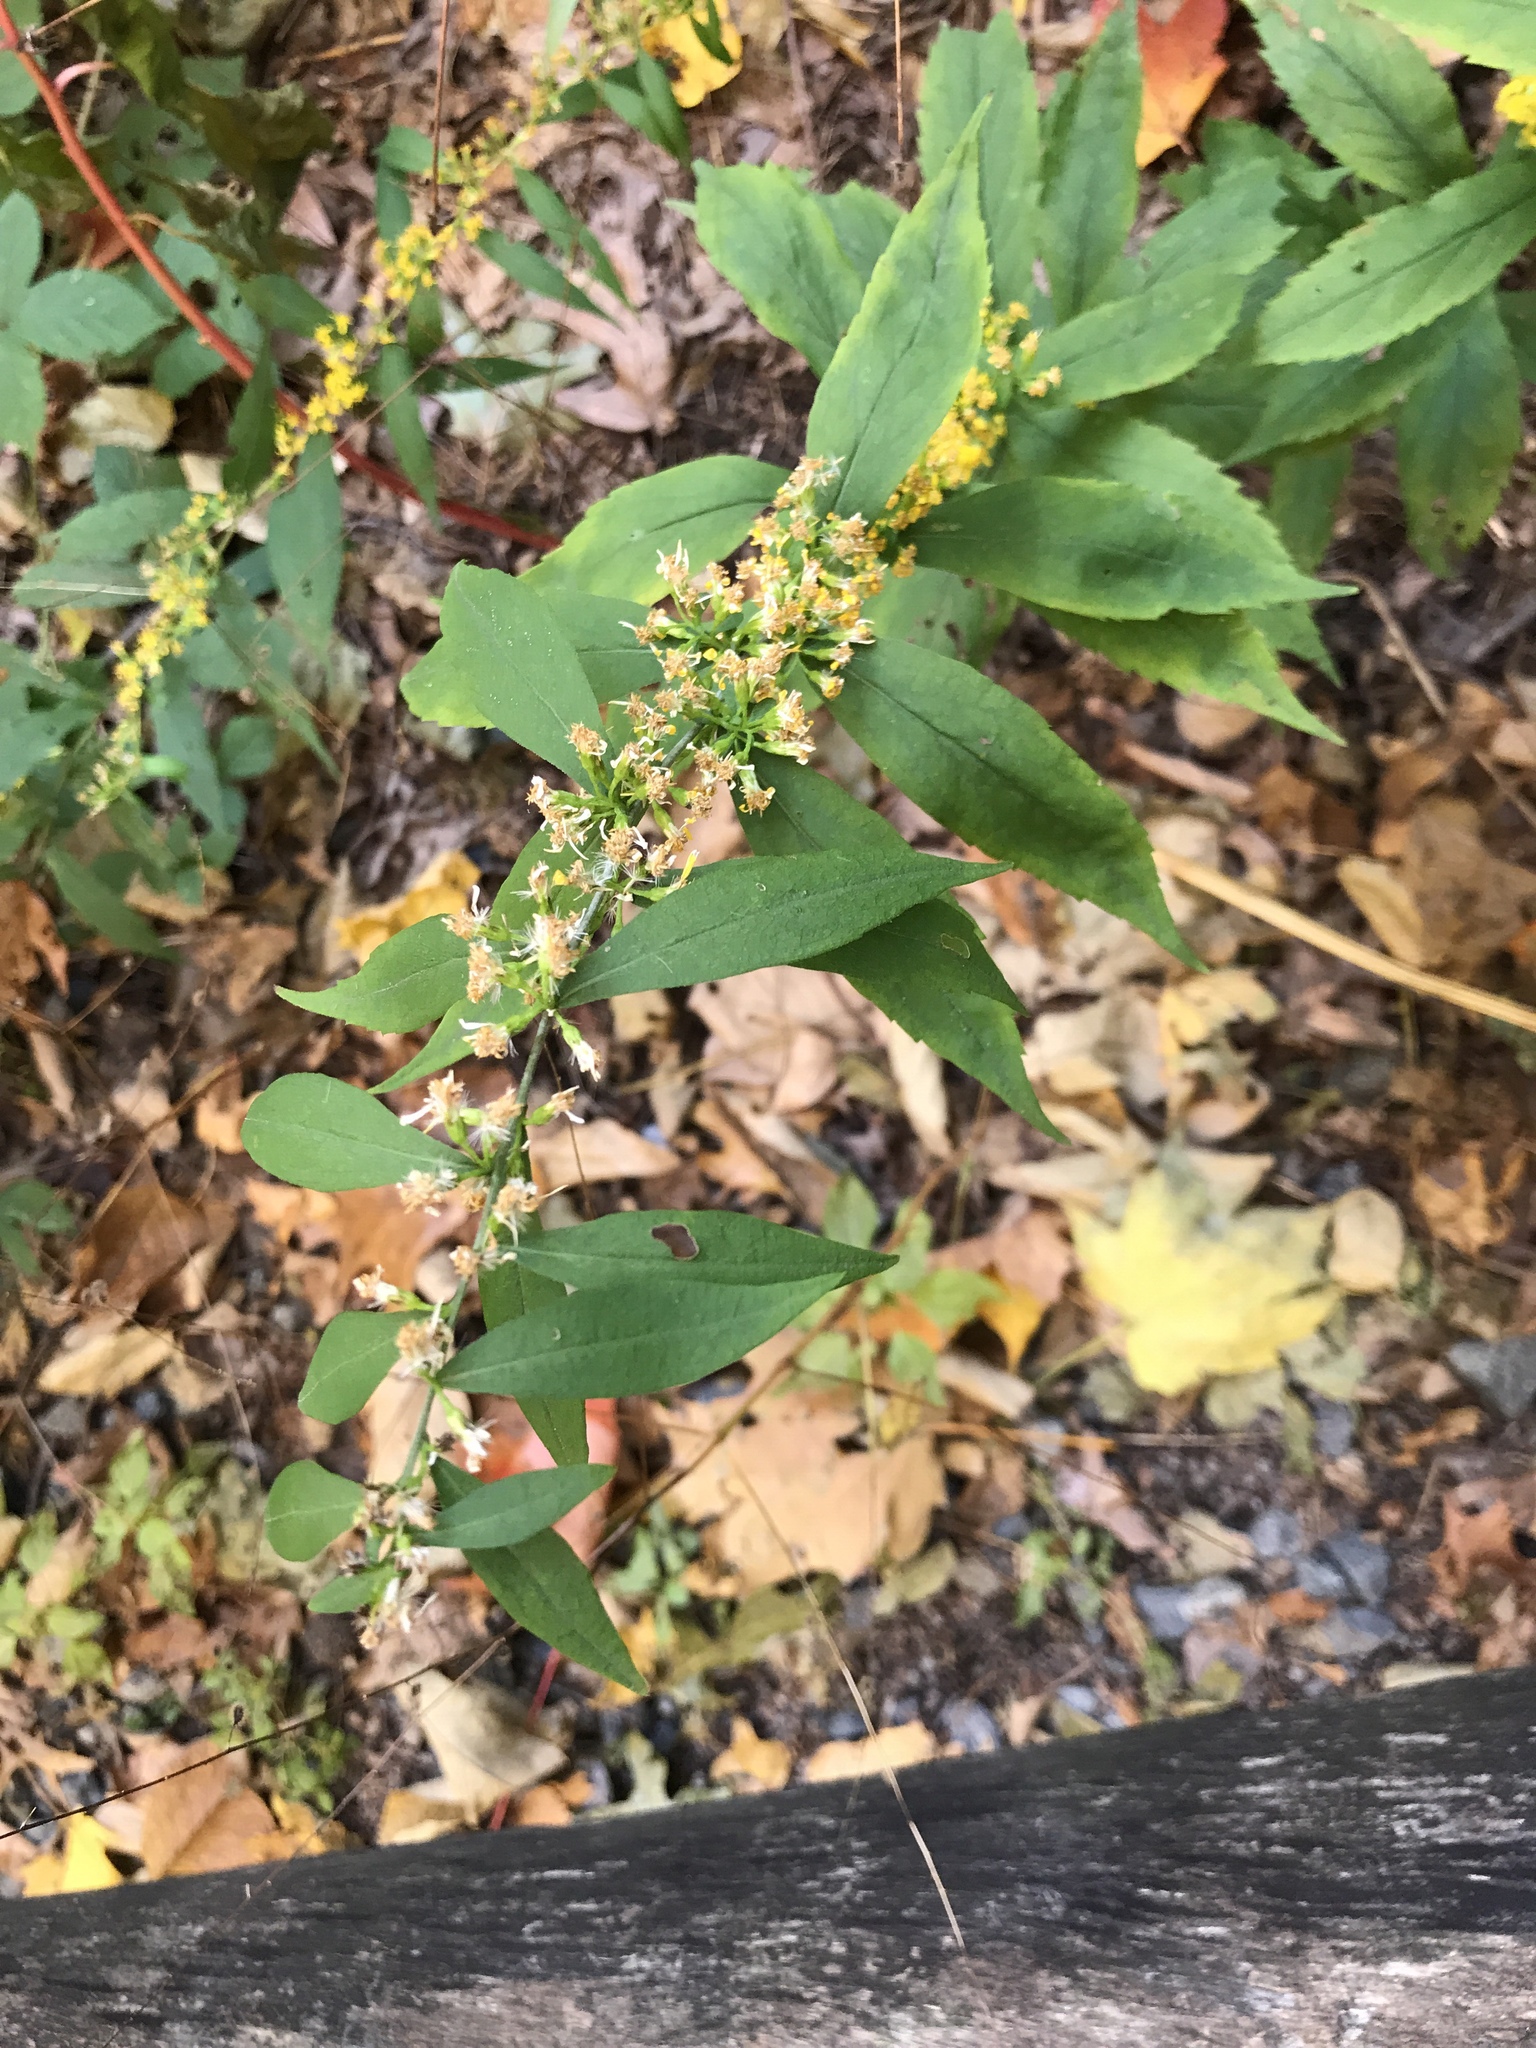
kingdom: Plantae
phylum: Tracheophyta
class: Magnoliopsida
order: Asterales
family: Asteraceae
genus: Solidago
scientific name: Solidago caesia
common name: Woodland goldenrod
